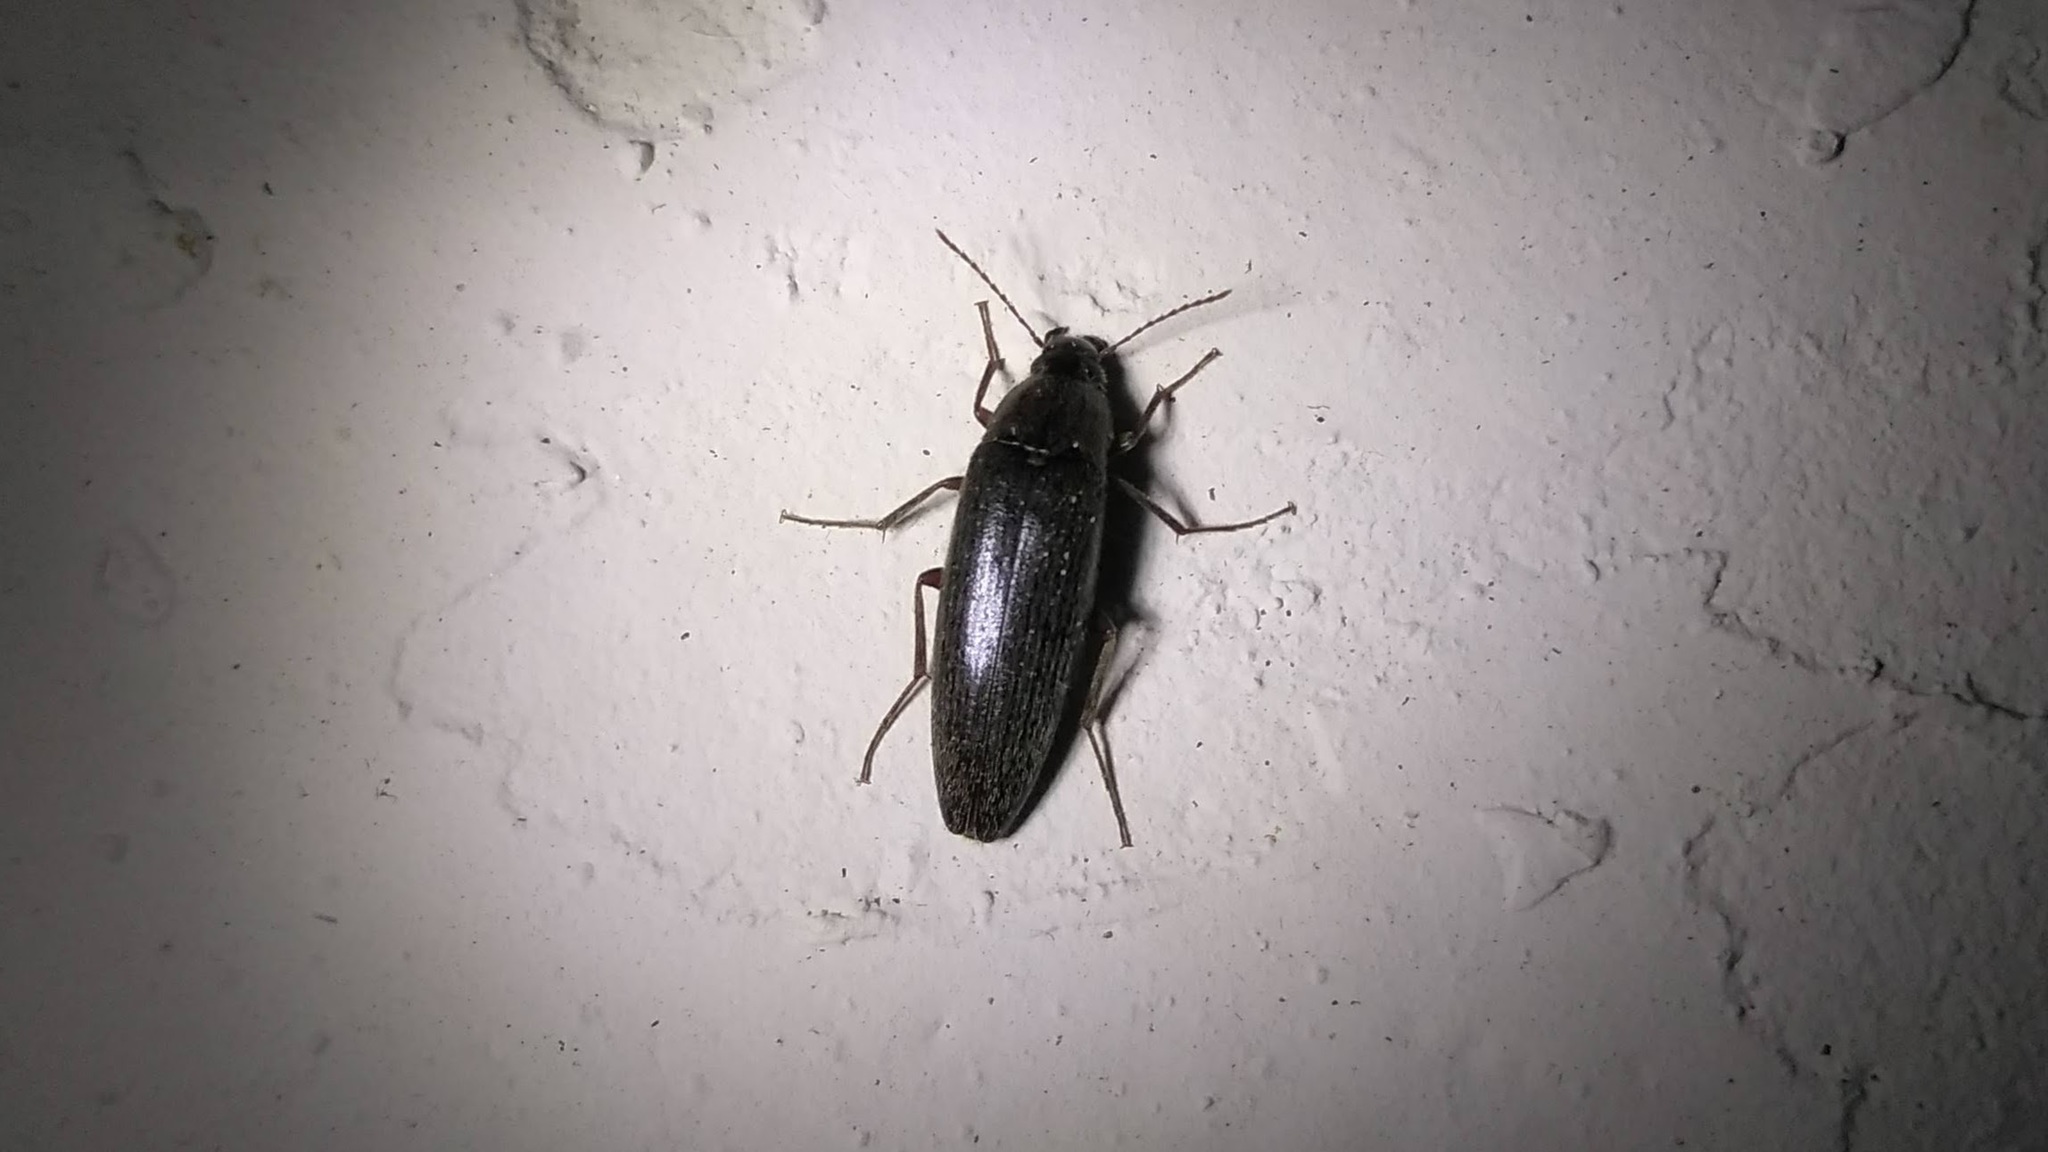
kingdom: Animalia
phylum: Arthropoda
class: Insecta
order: Coleoptera
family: Synchroidae
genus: Synchroa
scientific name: Synchroa punctata
